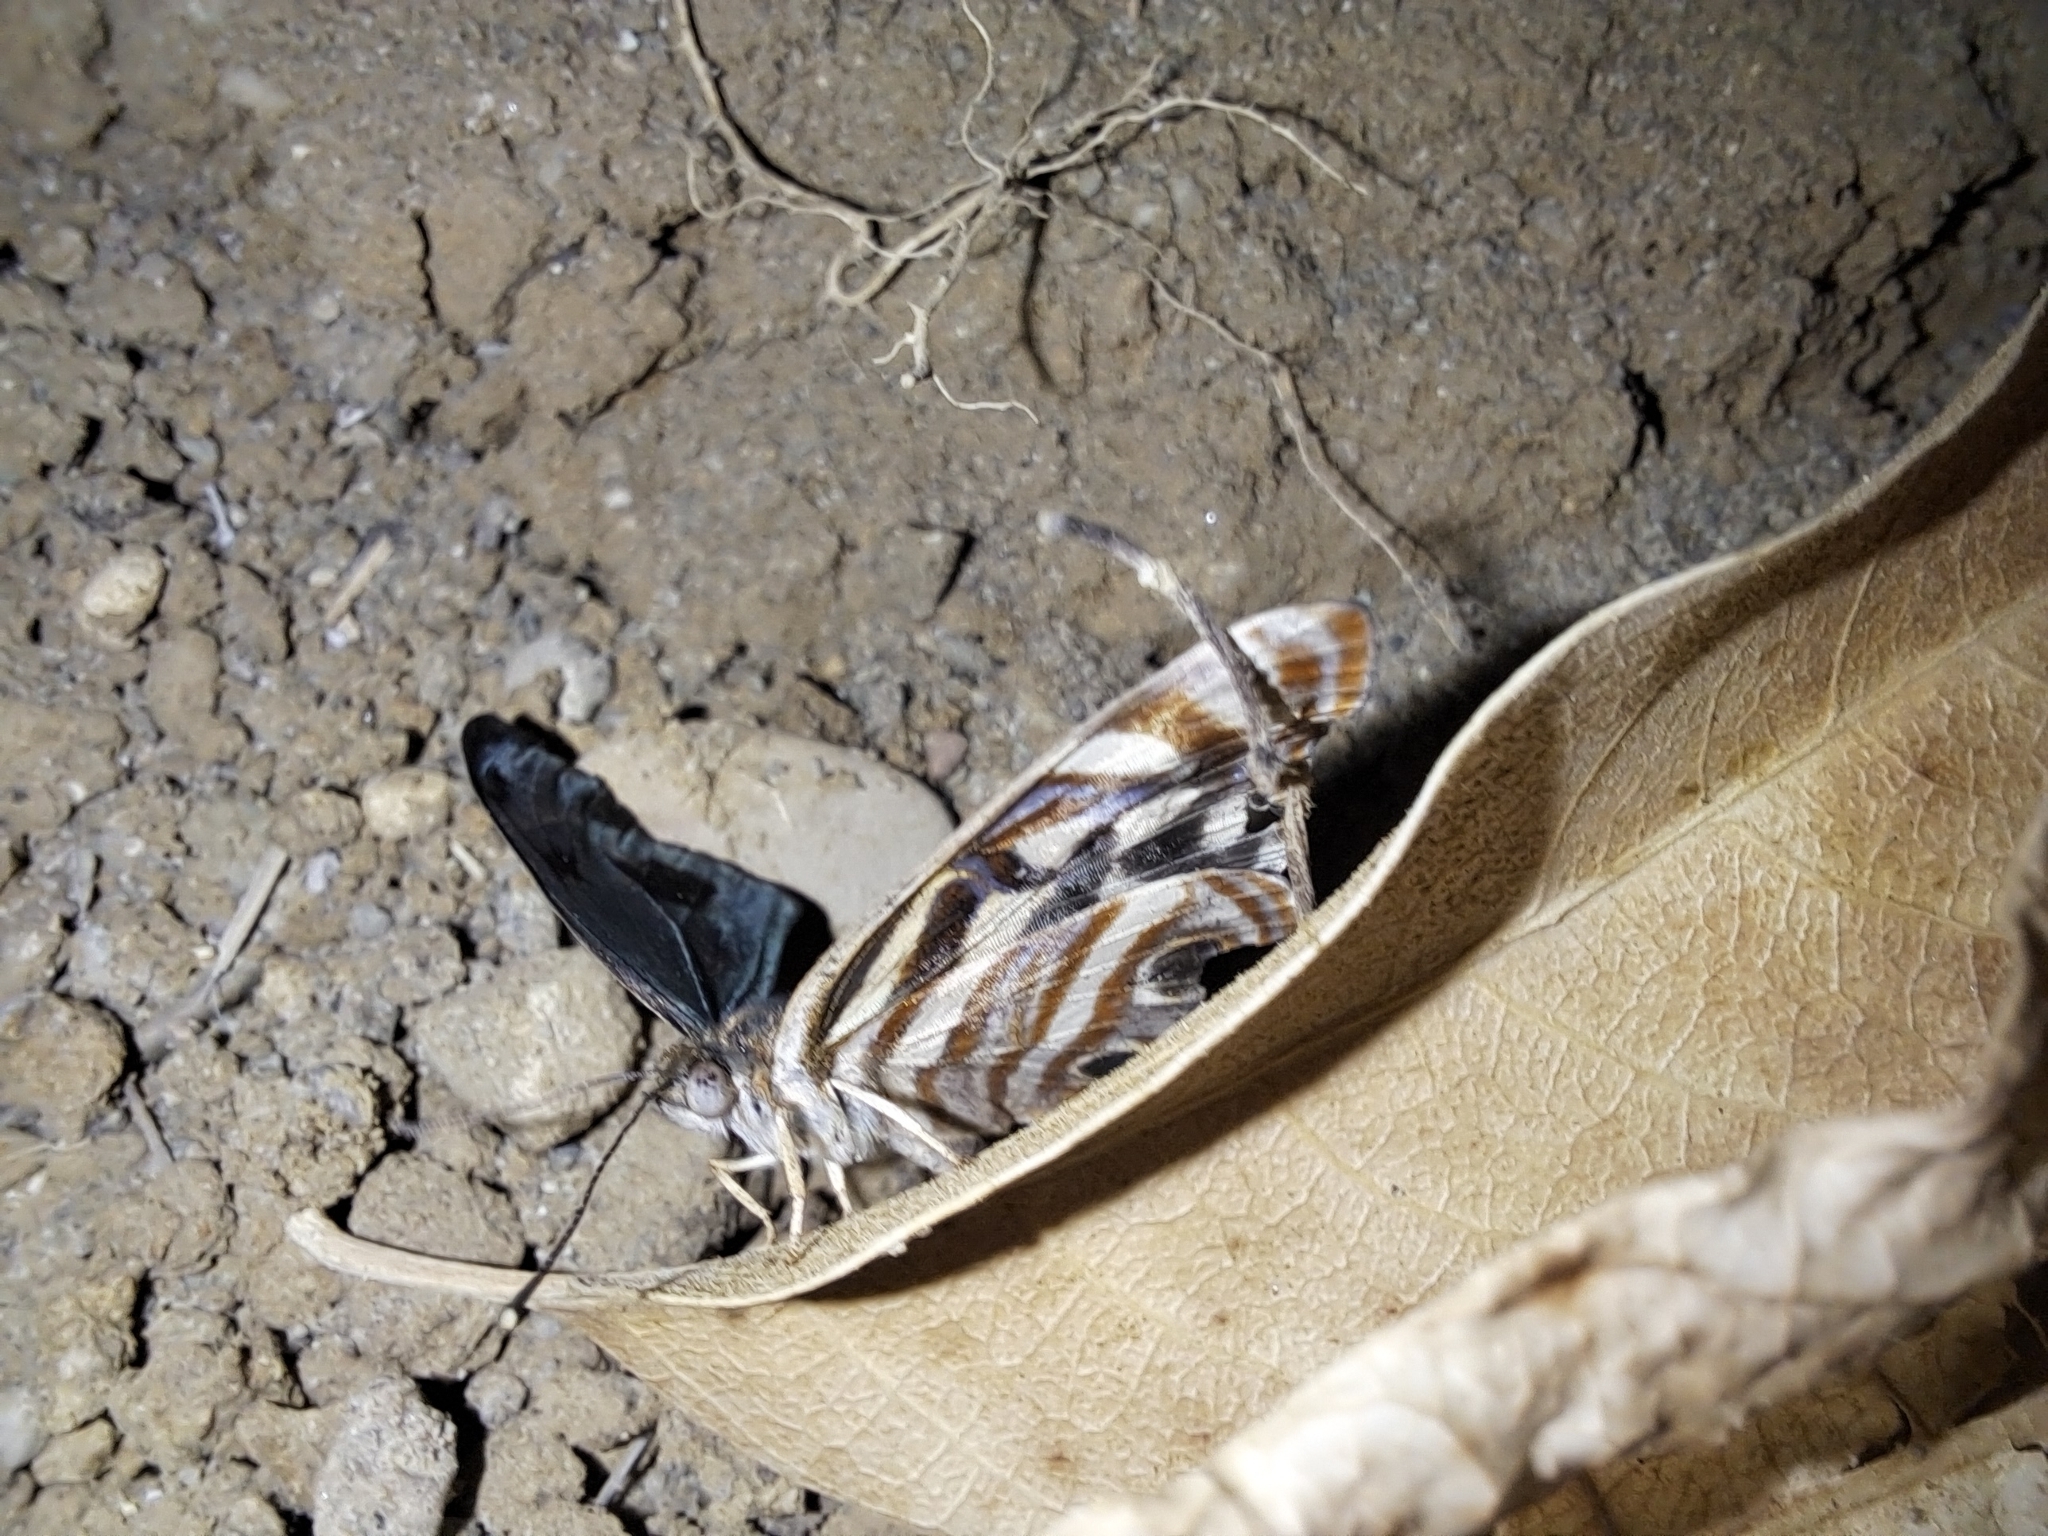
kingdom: Animalia
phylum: Arthropoda
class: Insecta
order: Lepidoptera
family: Nymphalidae
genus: Dynamine
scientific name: Dynamine mylitta
